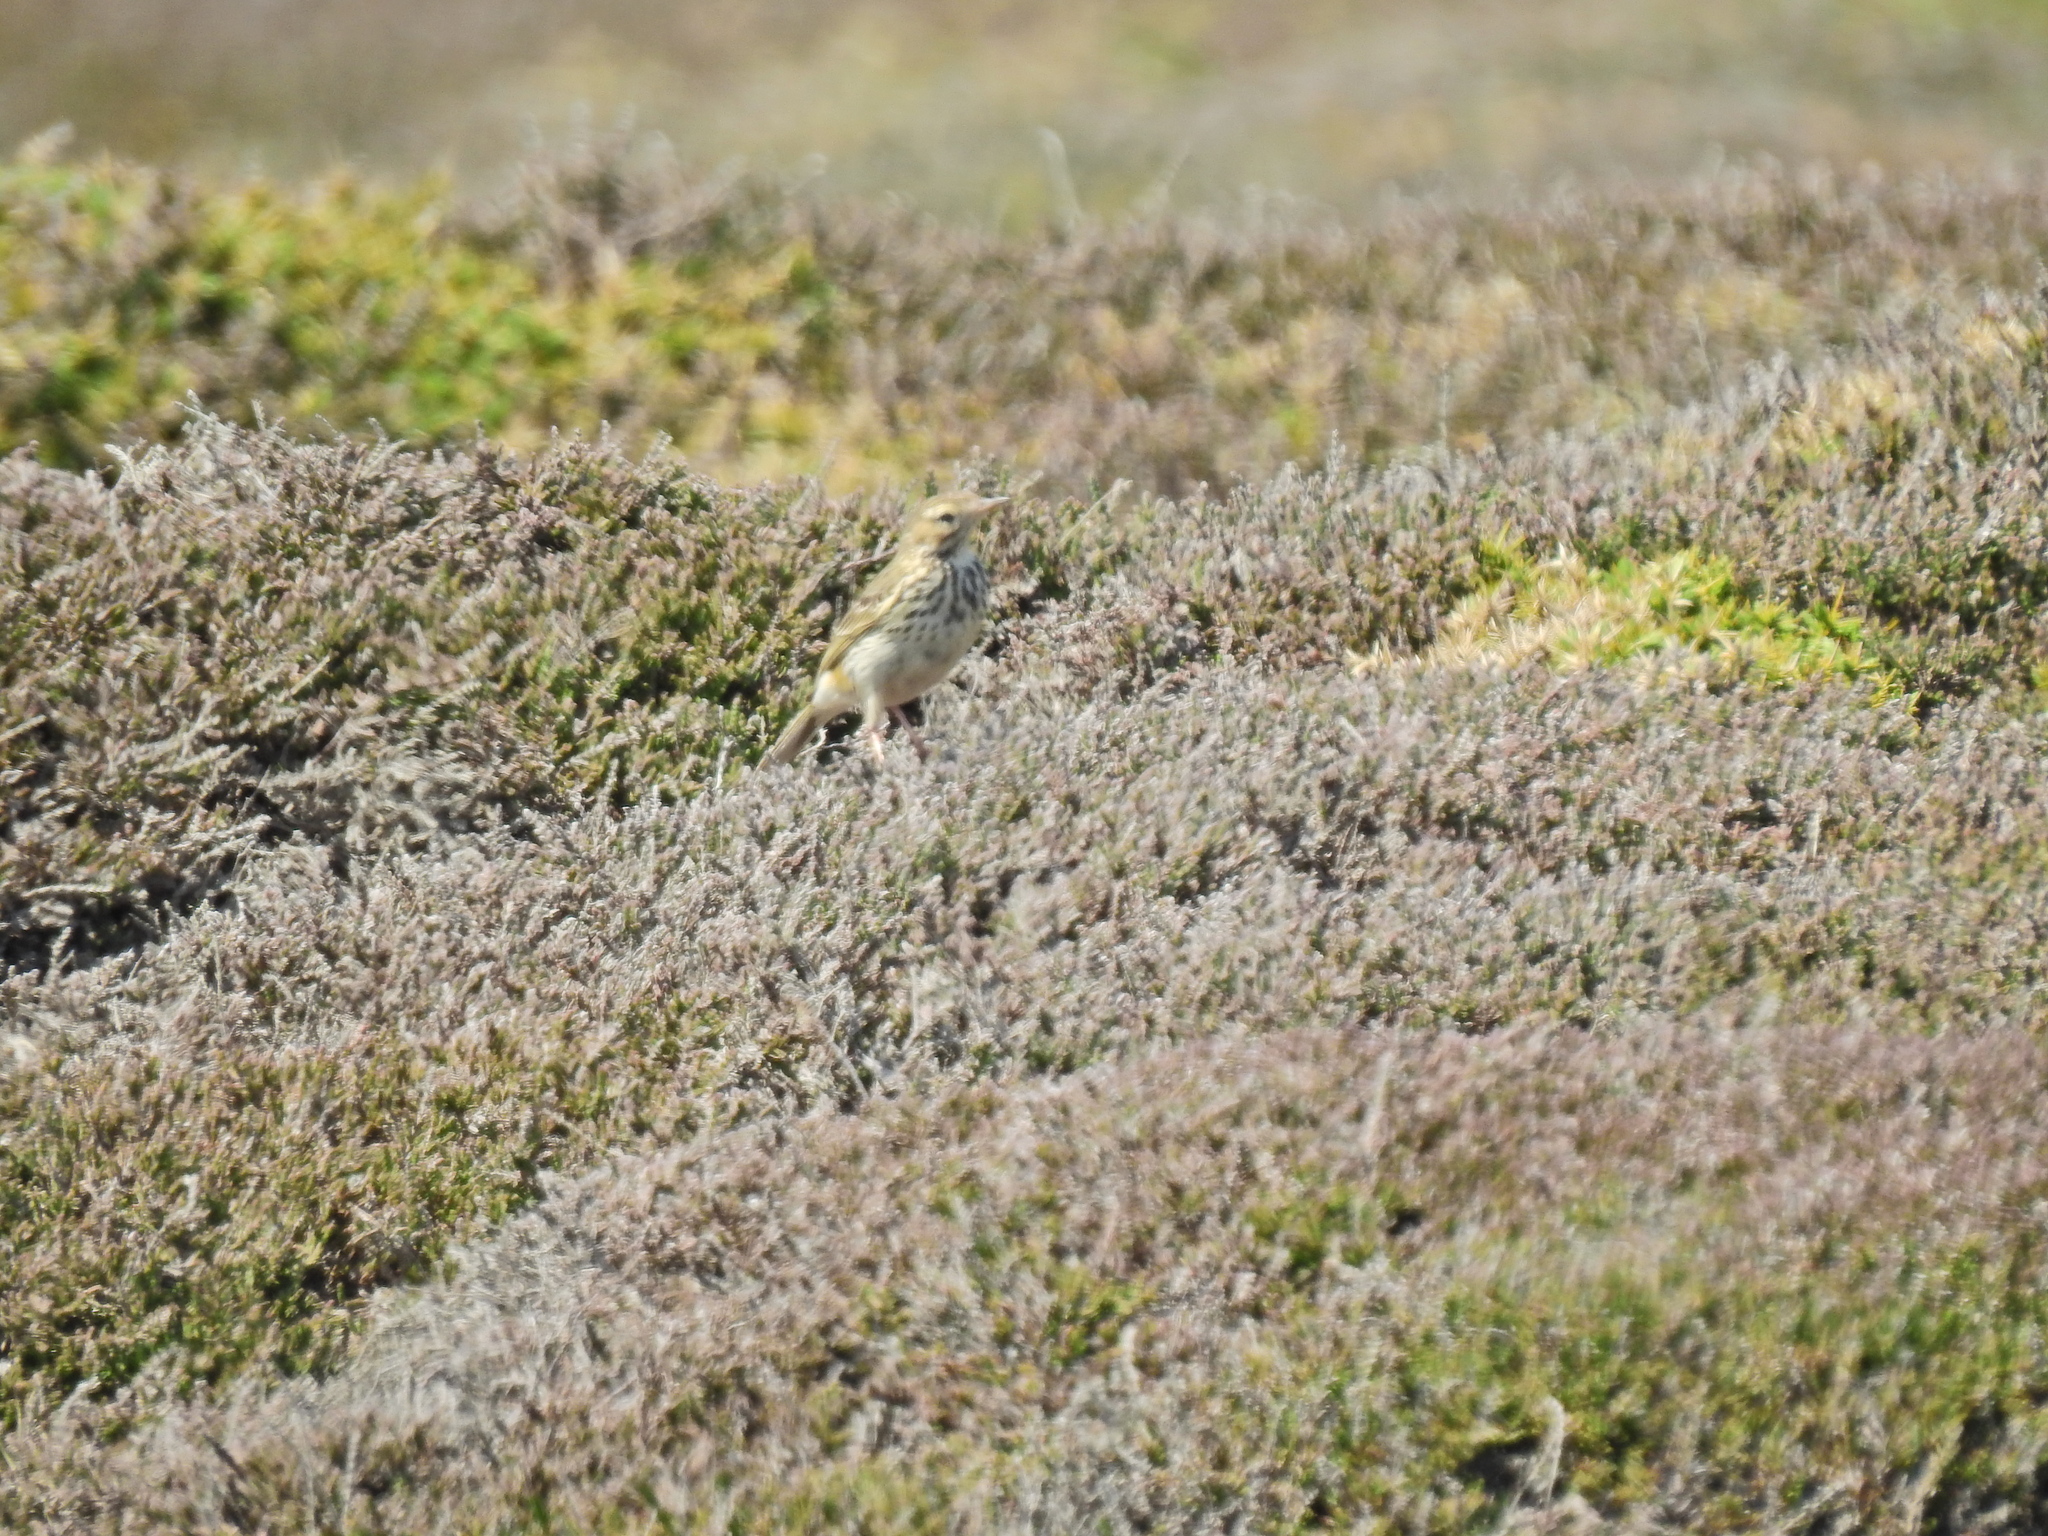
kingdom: Animalia
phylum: Chordata
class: Aves
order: Passeriformes
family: Motacillidae
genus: Anthus
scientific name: Anthus pratensis
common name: Meadow pipit
